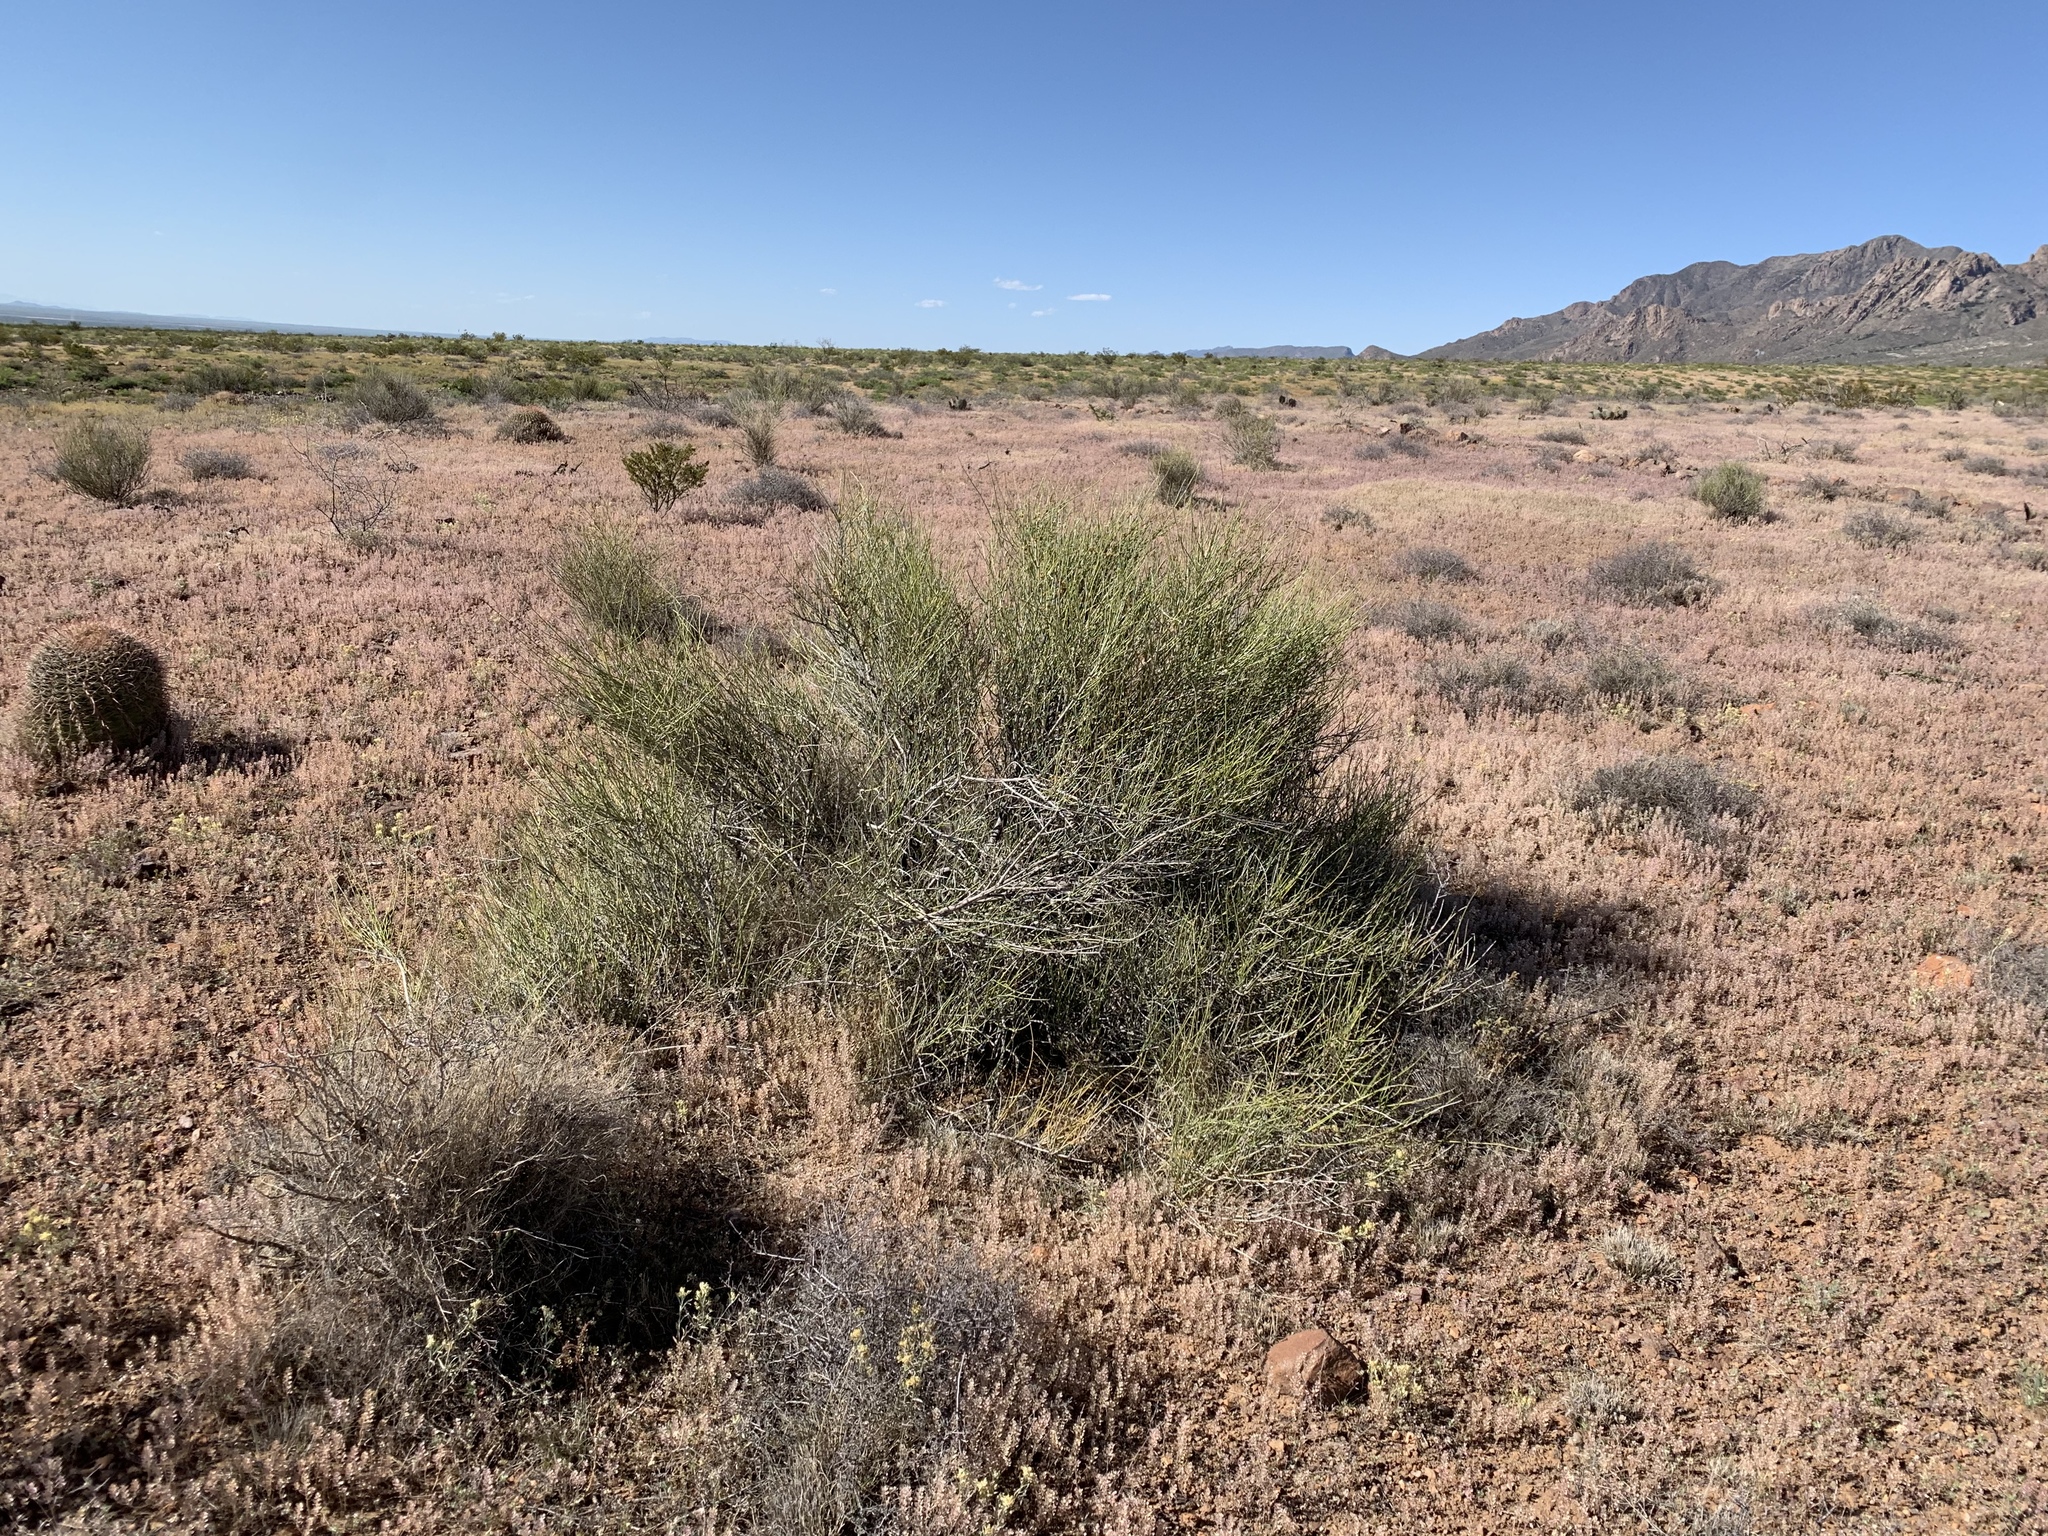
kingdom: Plantae
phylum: Tracheophyta
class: Gnetopsida
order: Ephedrales
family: Ephedraceae
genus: Ephedra
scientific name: Ephedra trifurca
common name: Mexican-tea
